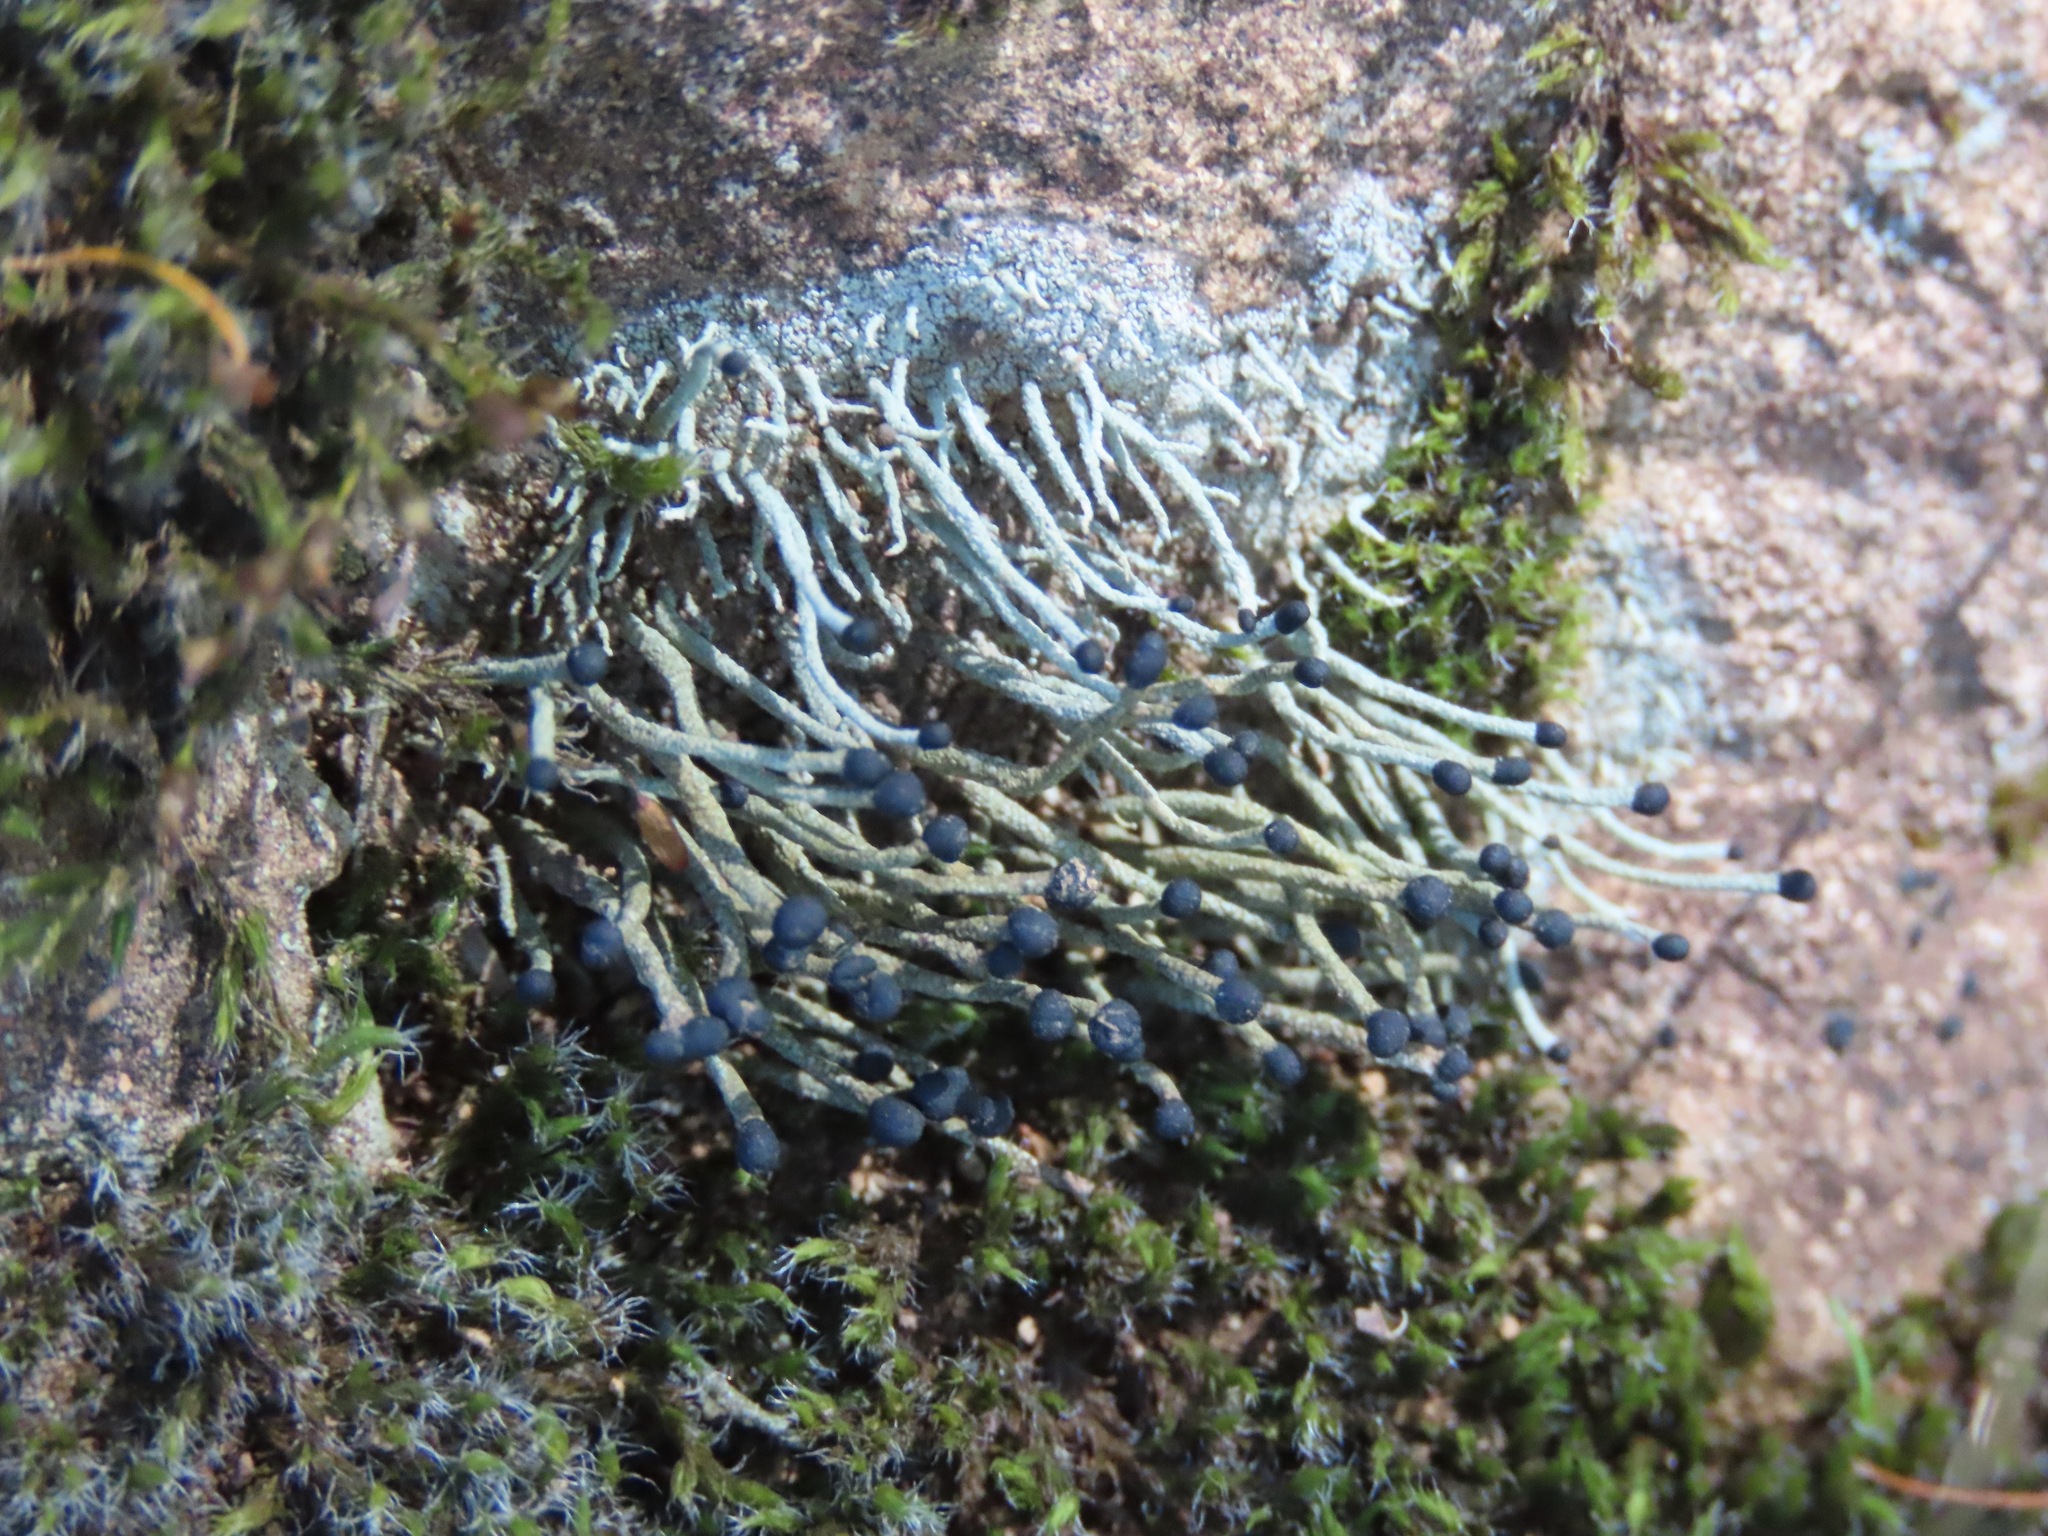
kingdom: Fungi
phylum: Ascomycota
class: Lecanoromycetes
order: Lecanorales
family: Cladoniaceae
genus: Pilophorus
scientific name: Pilophorus acicularis
